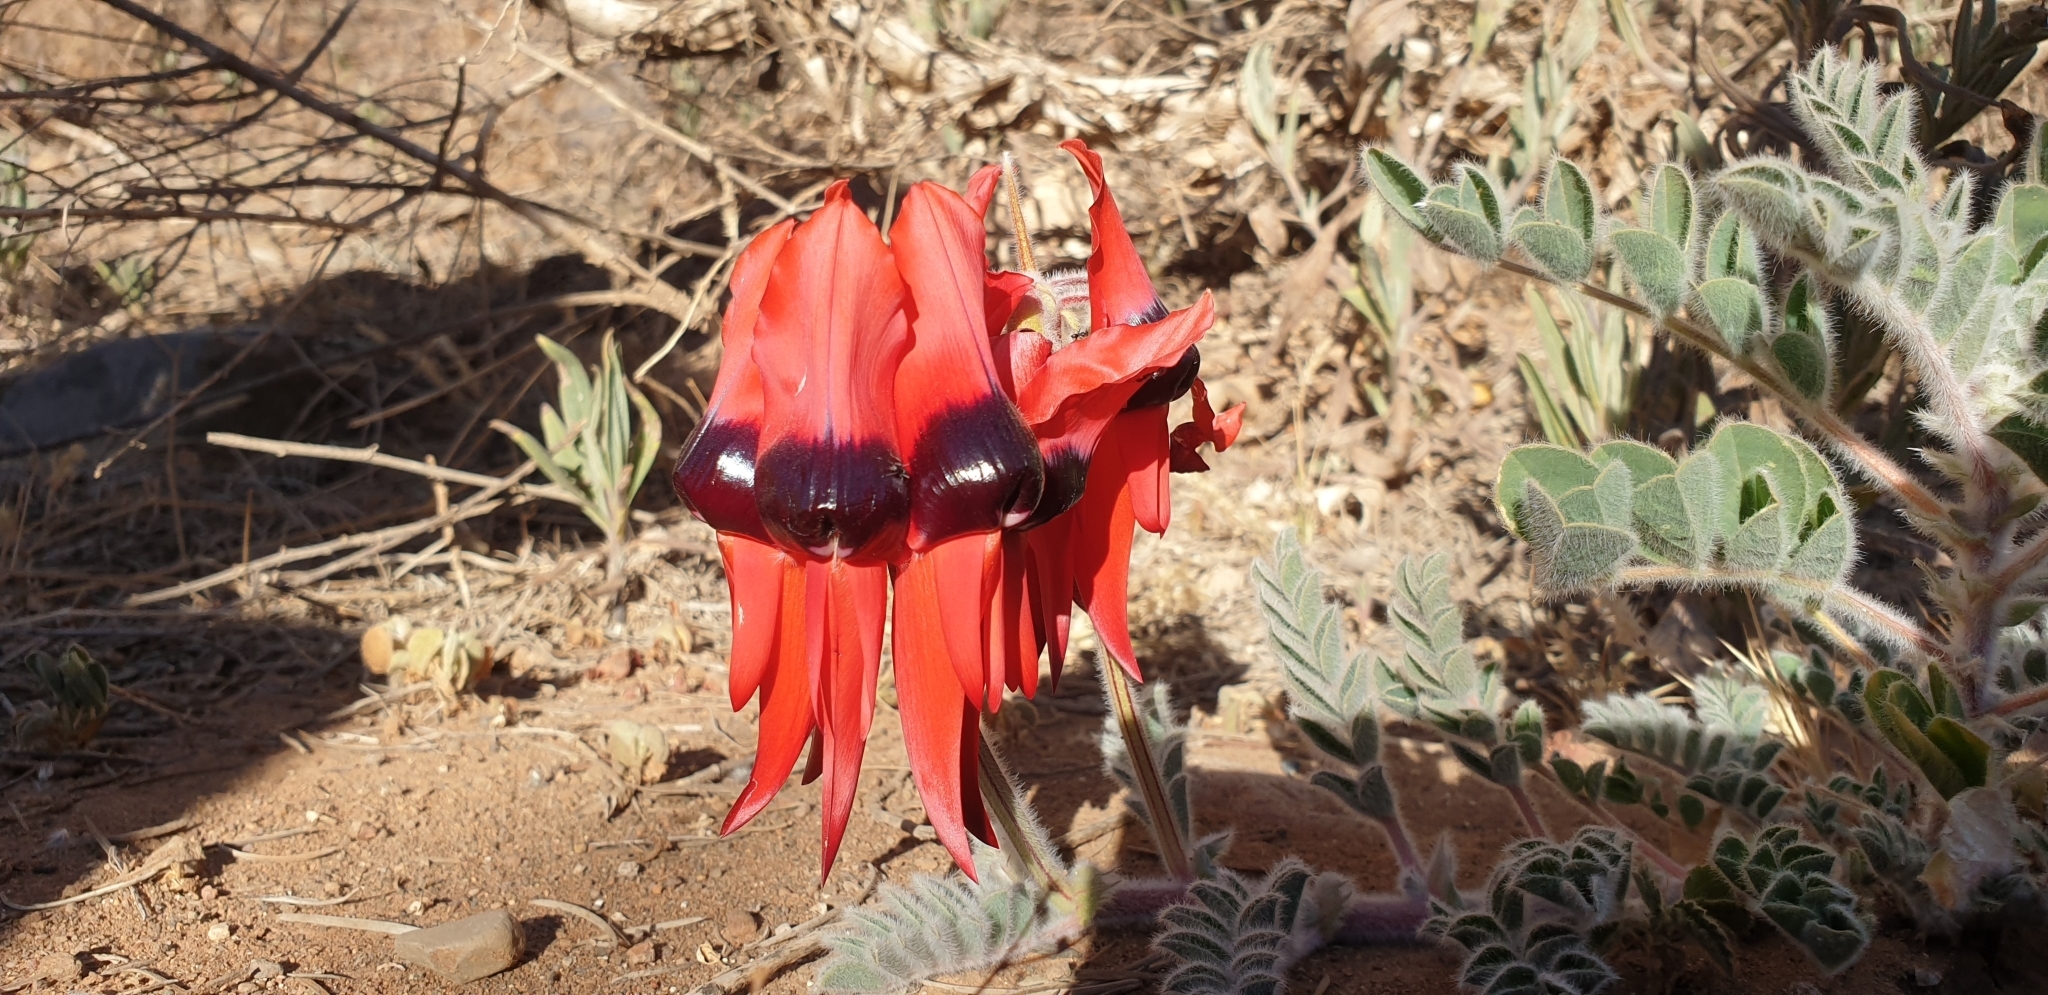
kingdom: Plantae
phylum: Tracheophyta
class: Magnoliopsida
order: Fabales
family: Fabaceae
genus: Swainsona
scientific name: Swainsona formosa
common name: Sturt's desert-pea
